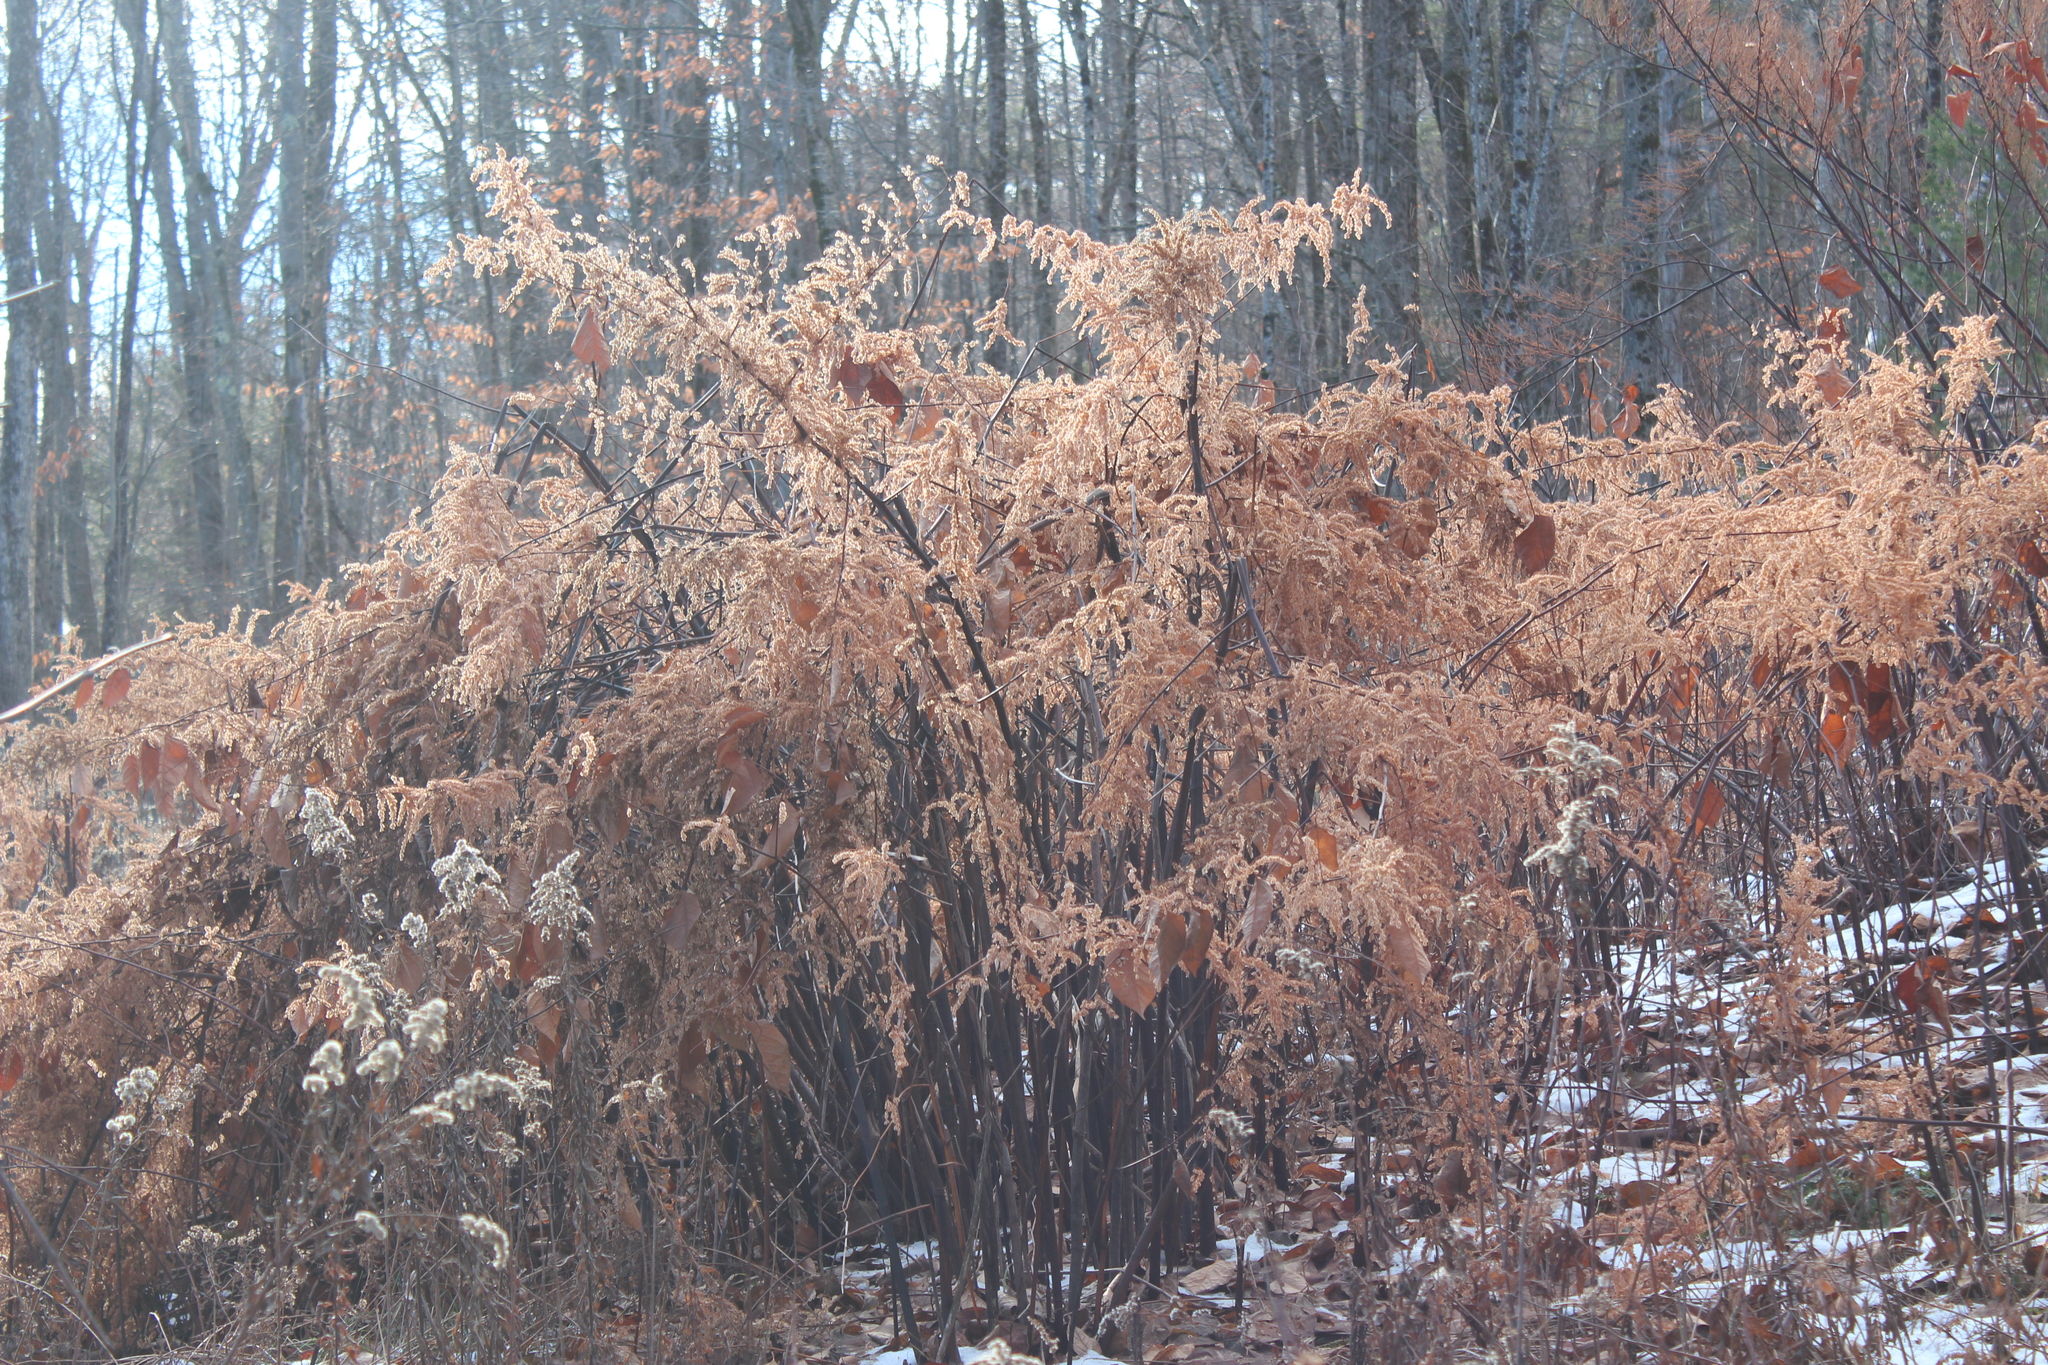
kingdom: Plantae
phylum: Tracheophyta
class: Magnoliopsida
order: Caryophyllales
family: Polygonaceae
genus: Reynoutria
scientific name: Reynoutria japonica
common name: Japanese knotweed
